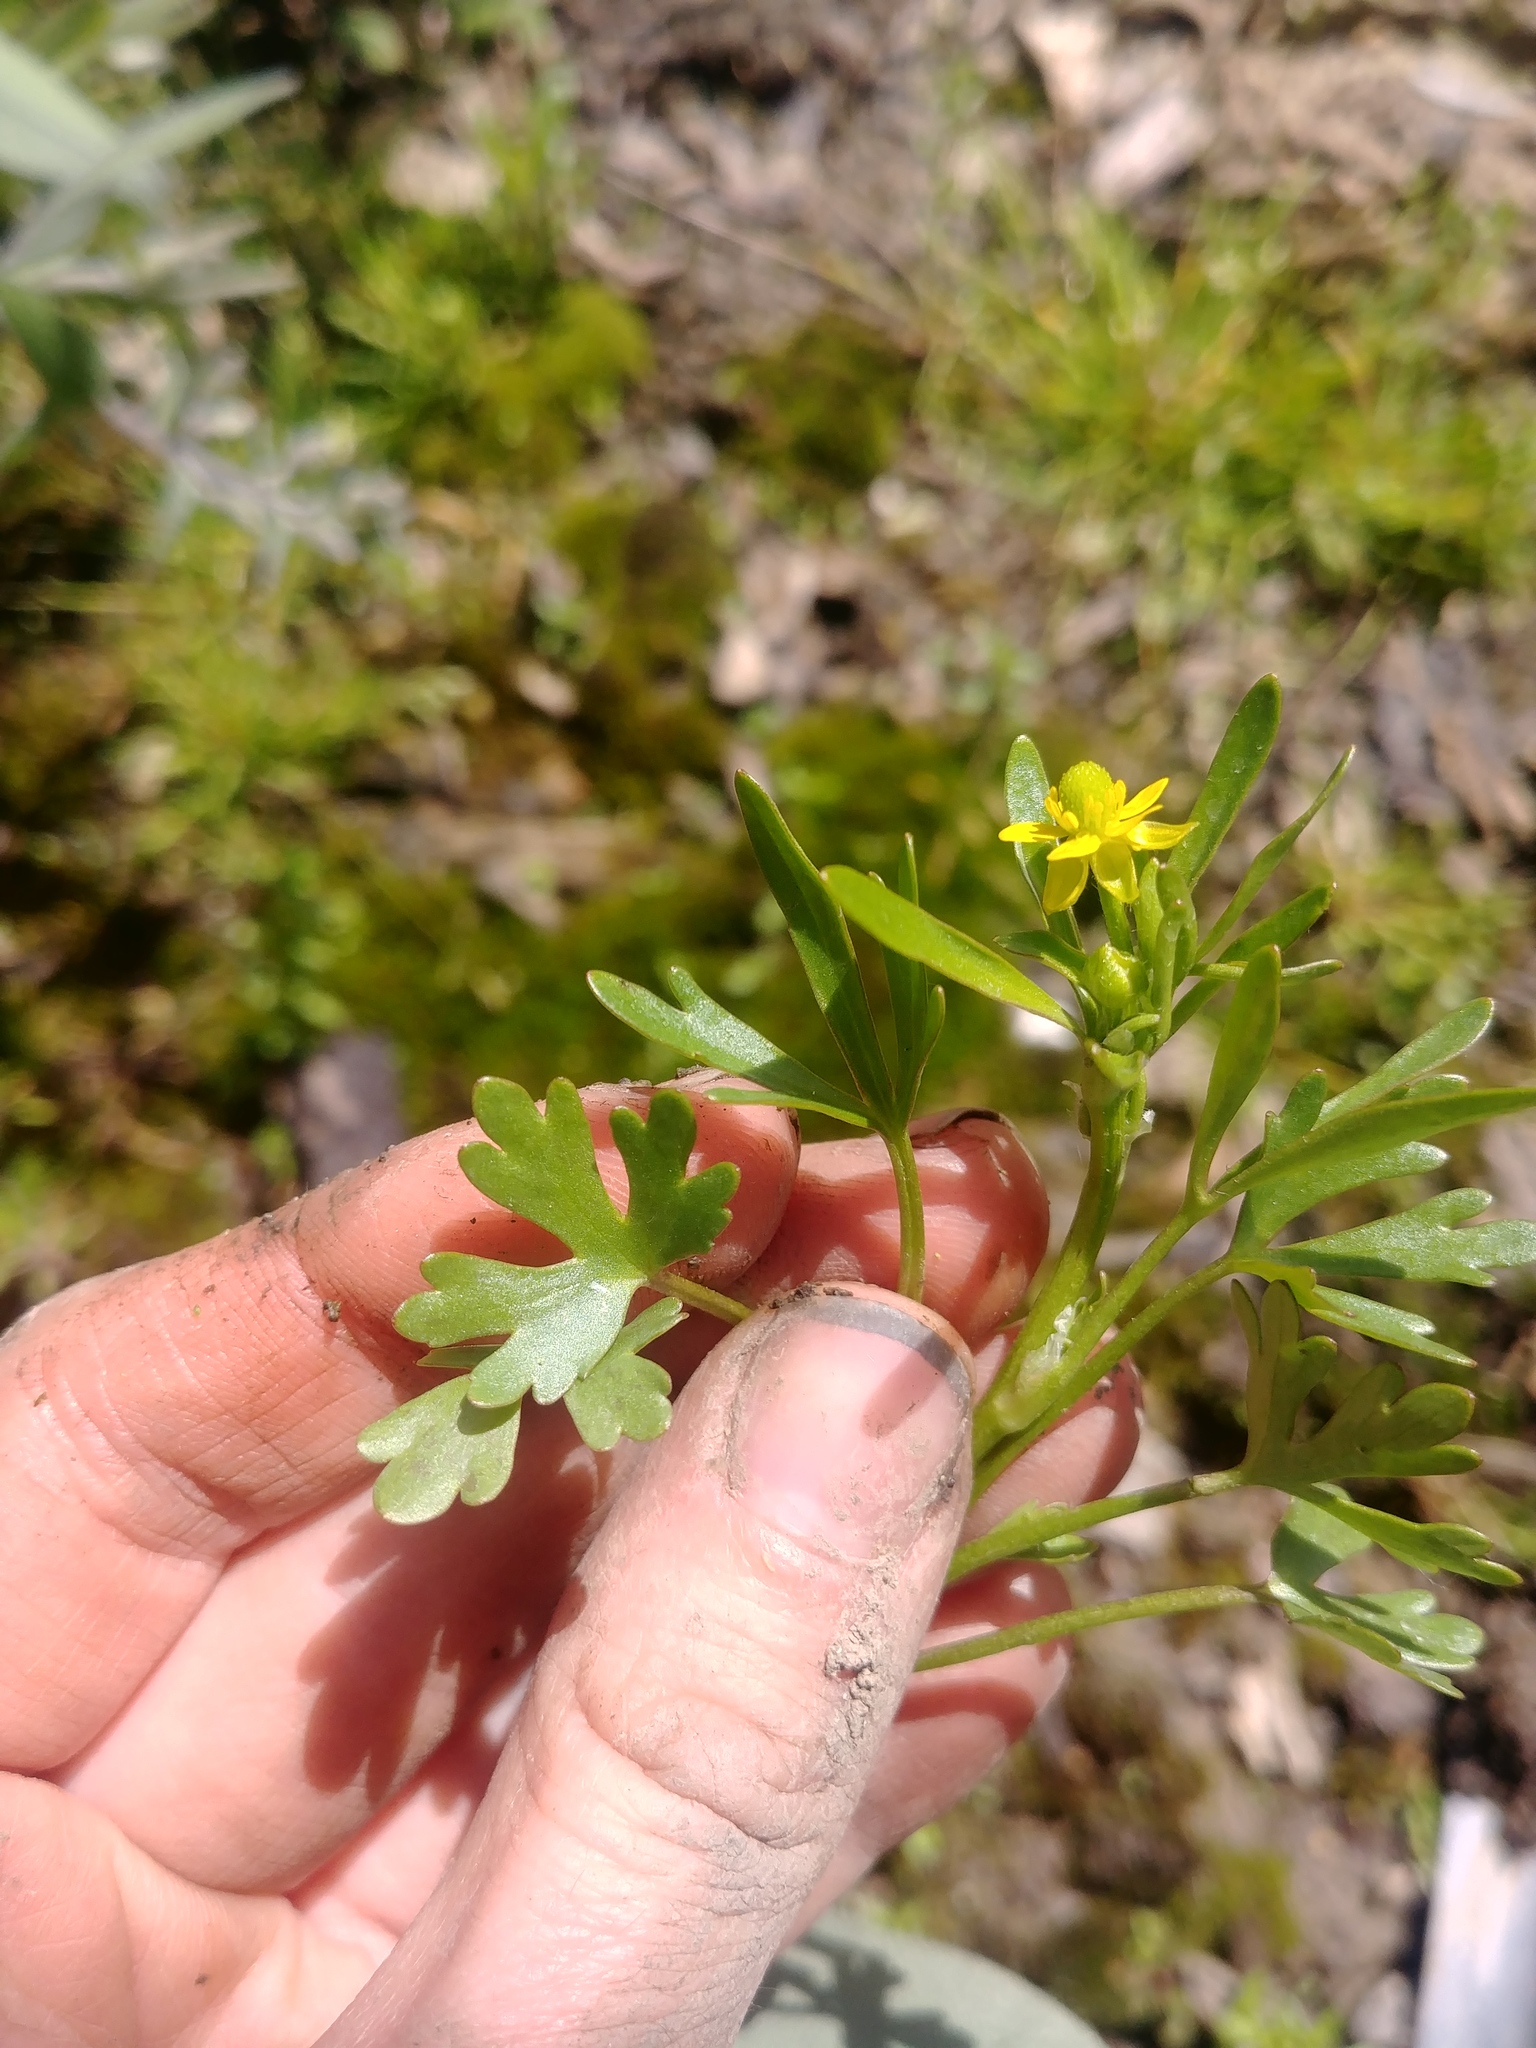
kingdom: Plantae
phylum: Tracheophyta
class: Magnoliopsida
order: Ranunculales
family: Ranunculaceae
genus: Ranunculus
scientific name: Ranunculus sceleratus
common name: Celery-leaved buttercup
